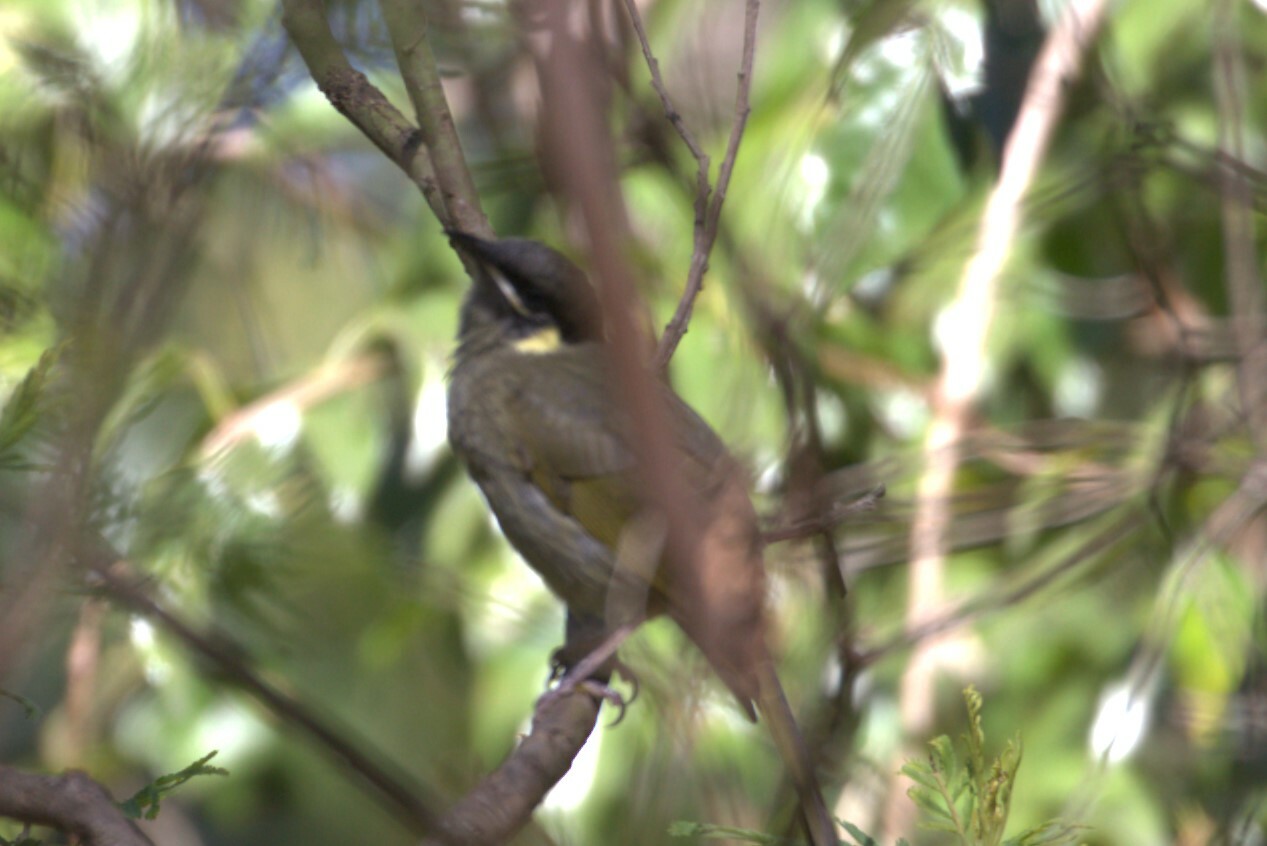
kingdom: Animalia
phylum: Chordata
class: Aves
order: Passeriformes
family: Meliphagidae
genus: Meliphaga
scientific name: Meliphaga lewinii
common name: Lewin's honeyeater
